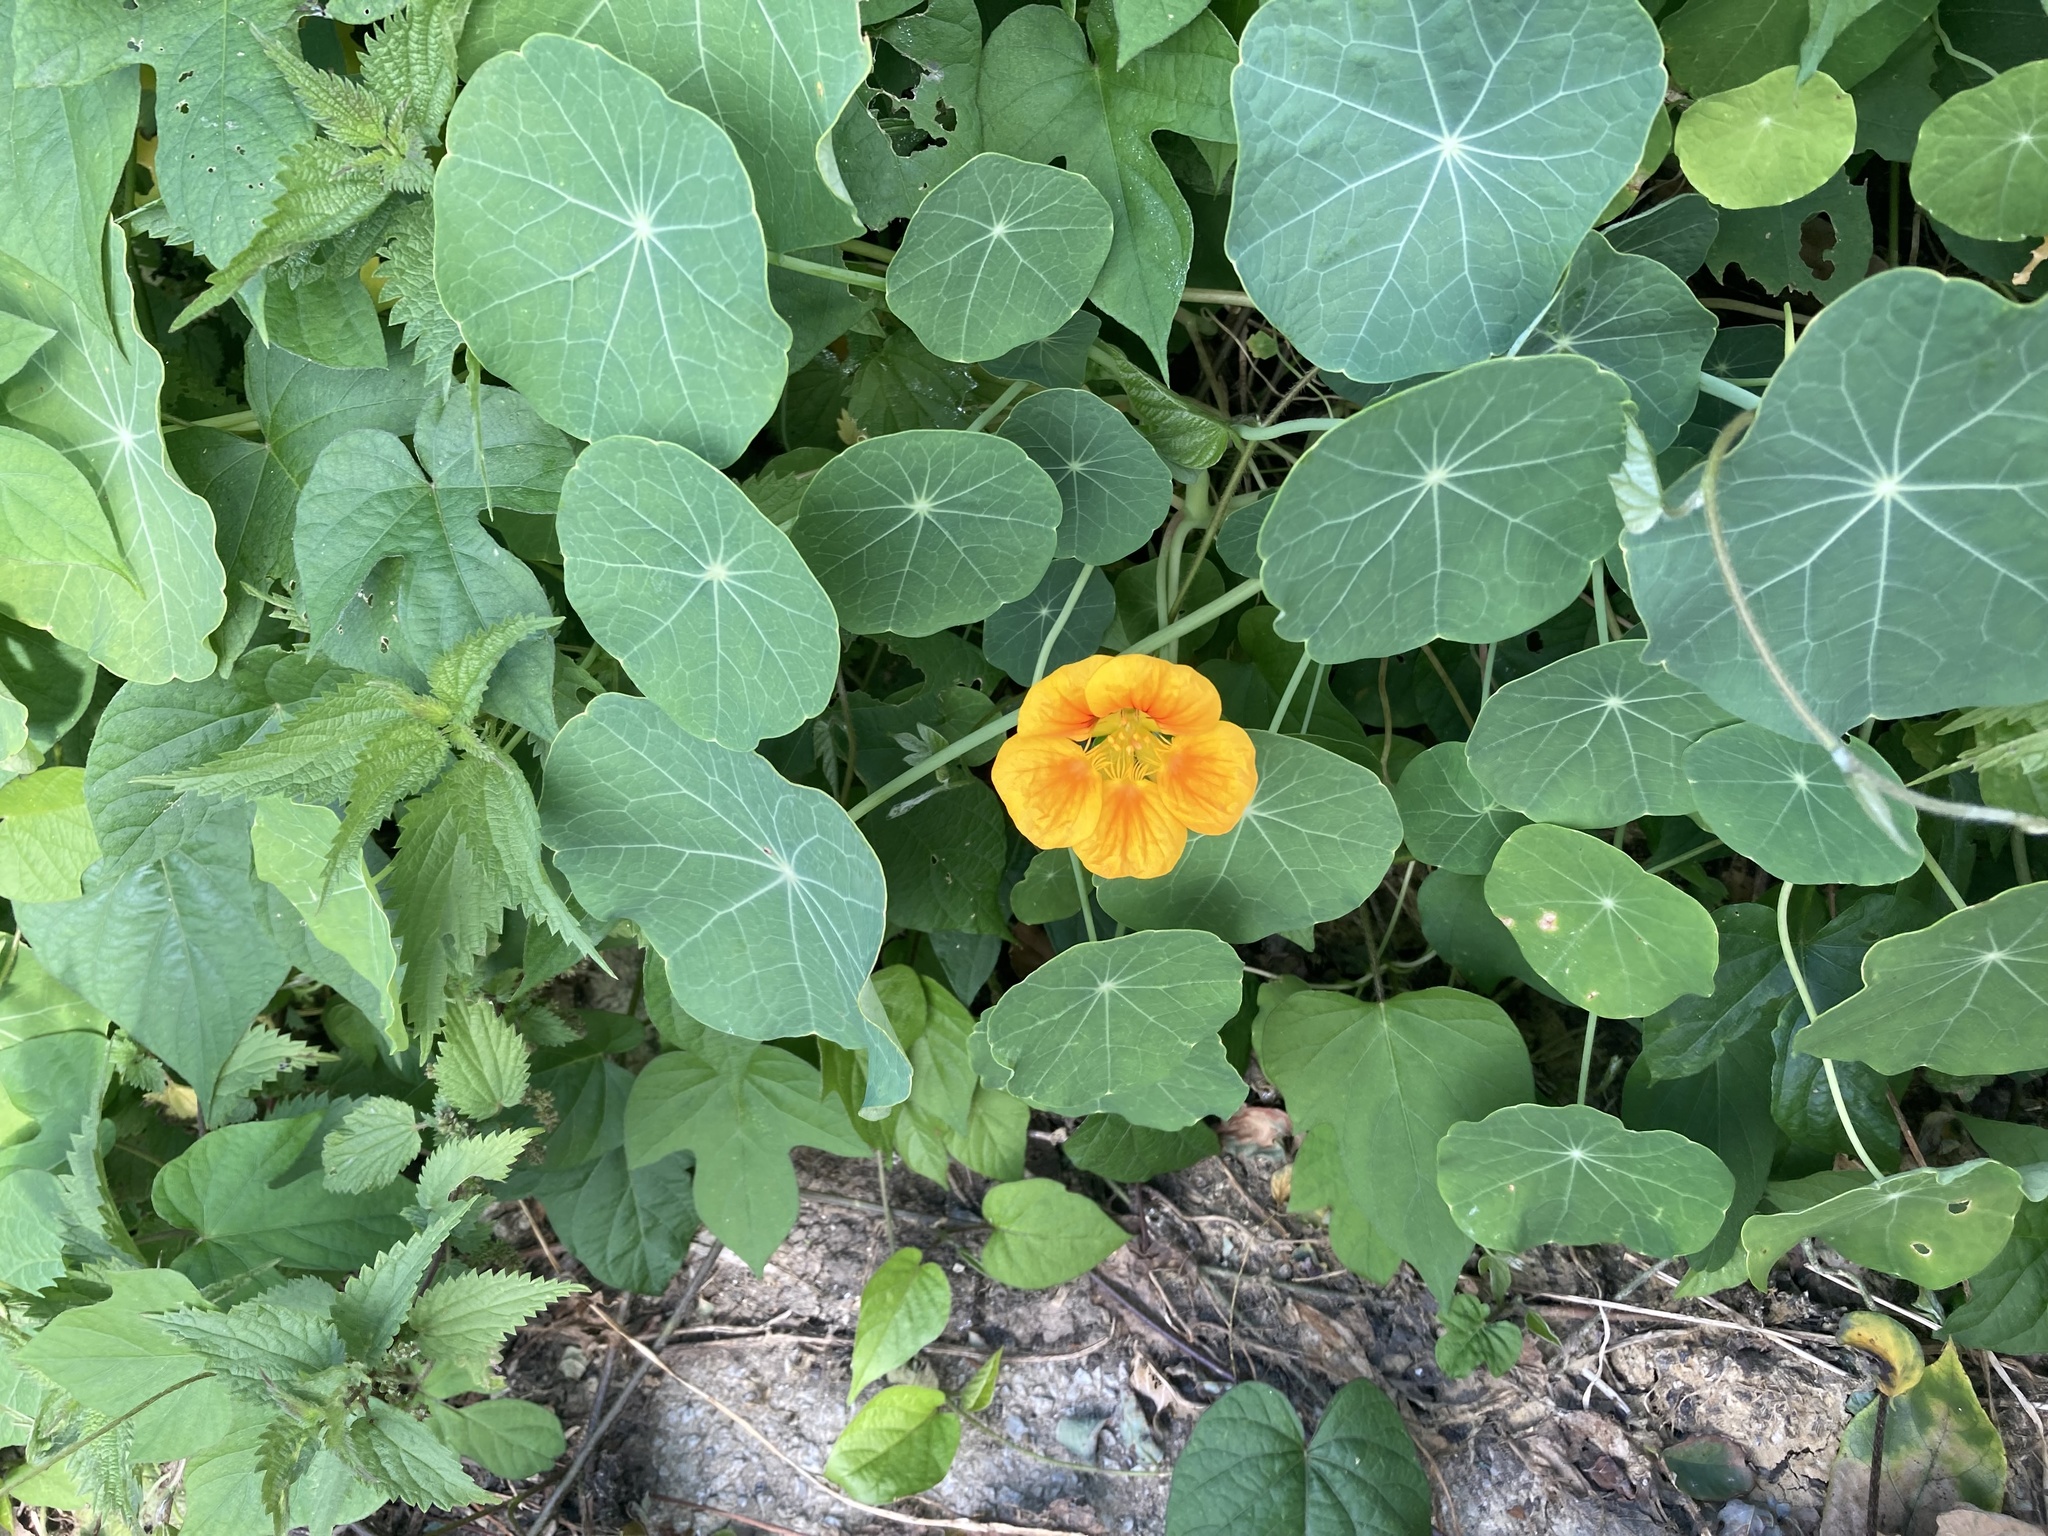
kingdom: Plantae
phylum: Tracheophyta
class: Magnoliopsida
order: Brassicales
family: Tropaeolaceae
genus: Tropaeolum
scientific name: Tropaeolum majus
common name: Nasturtium
